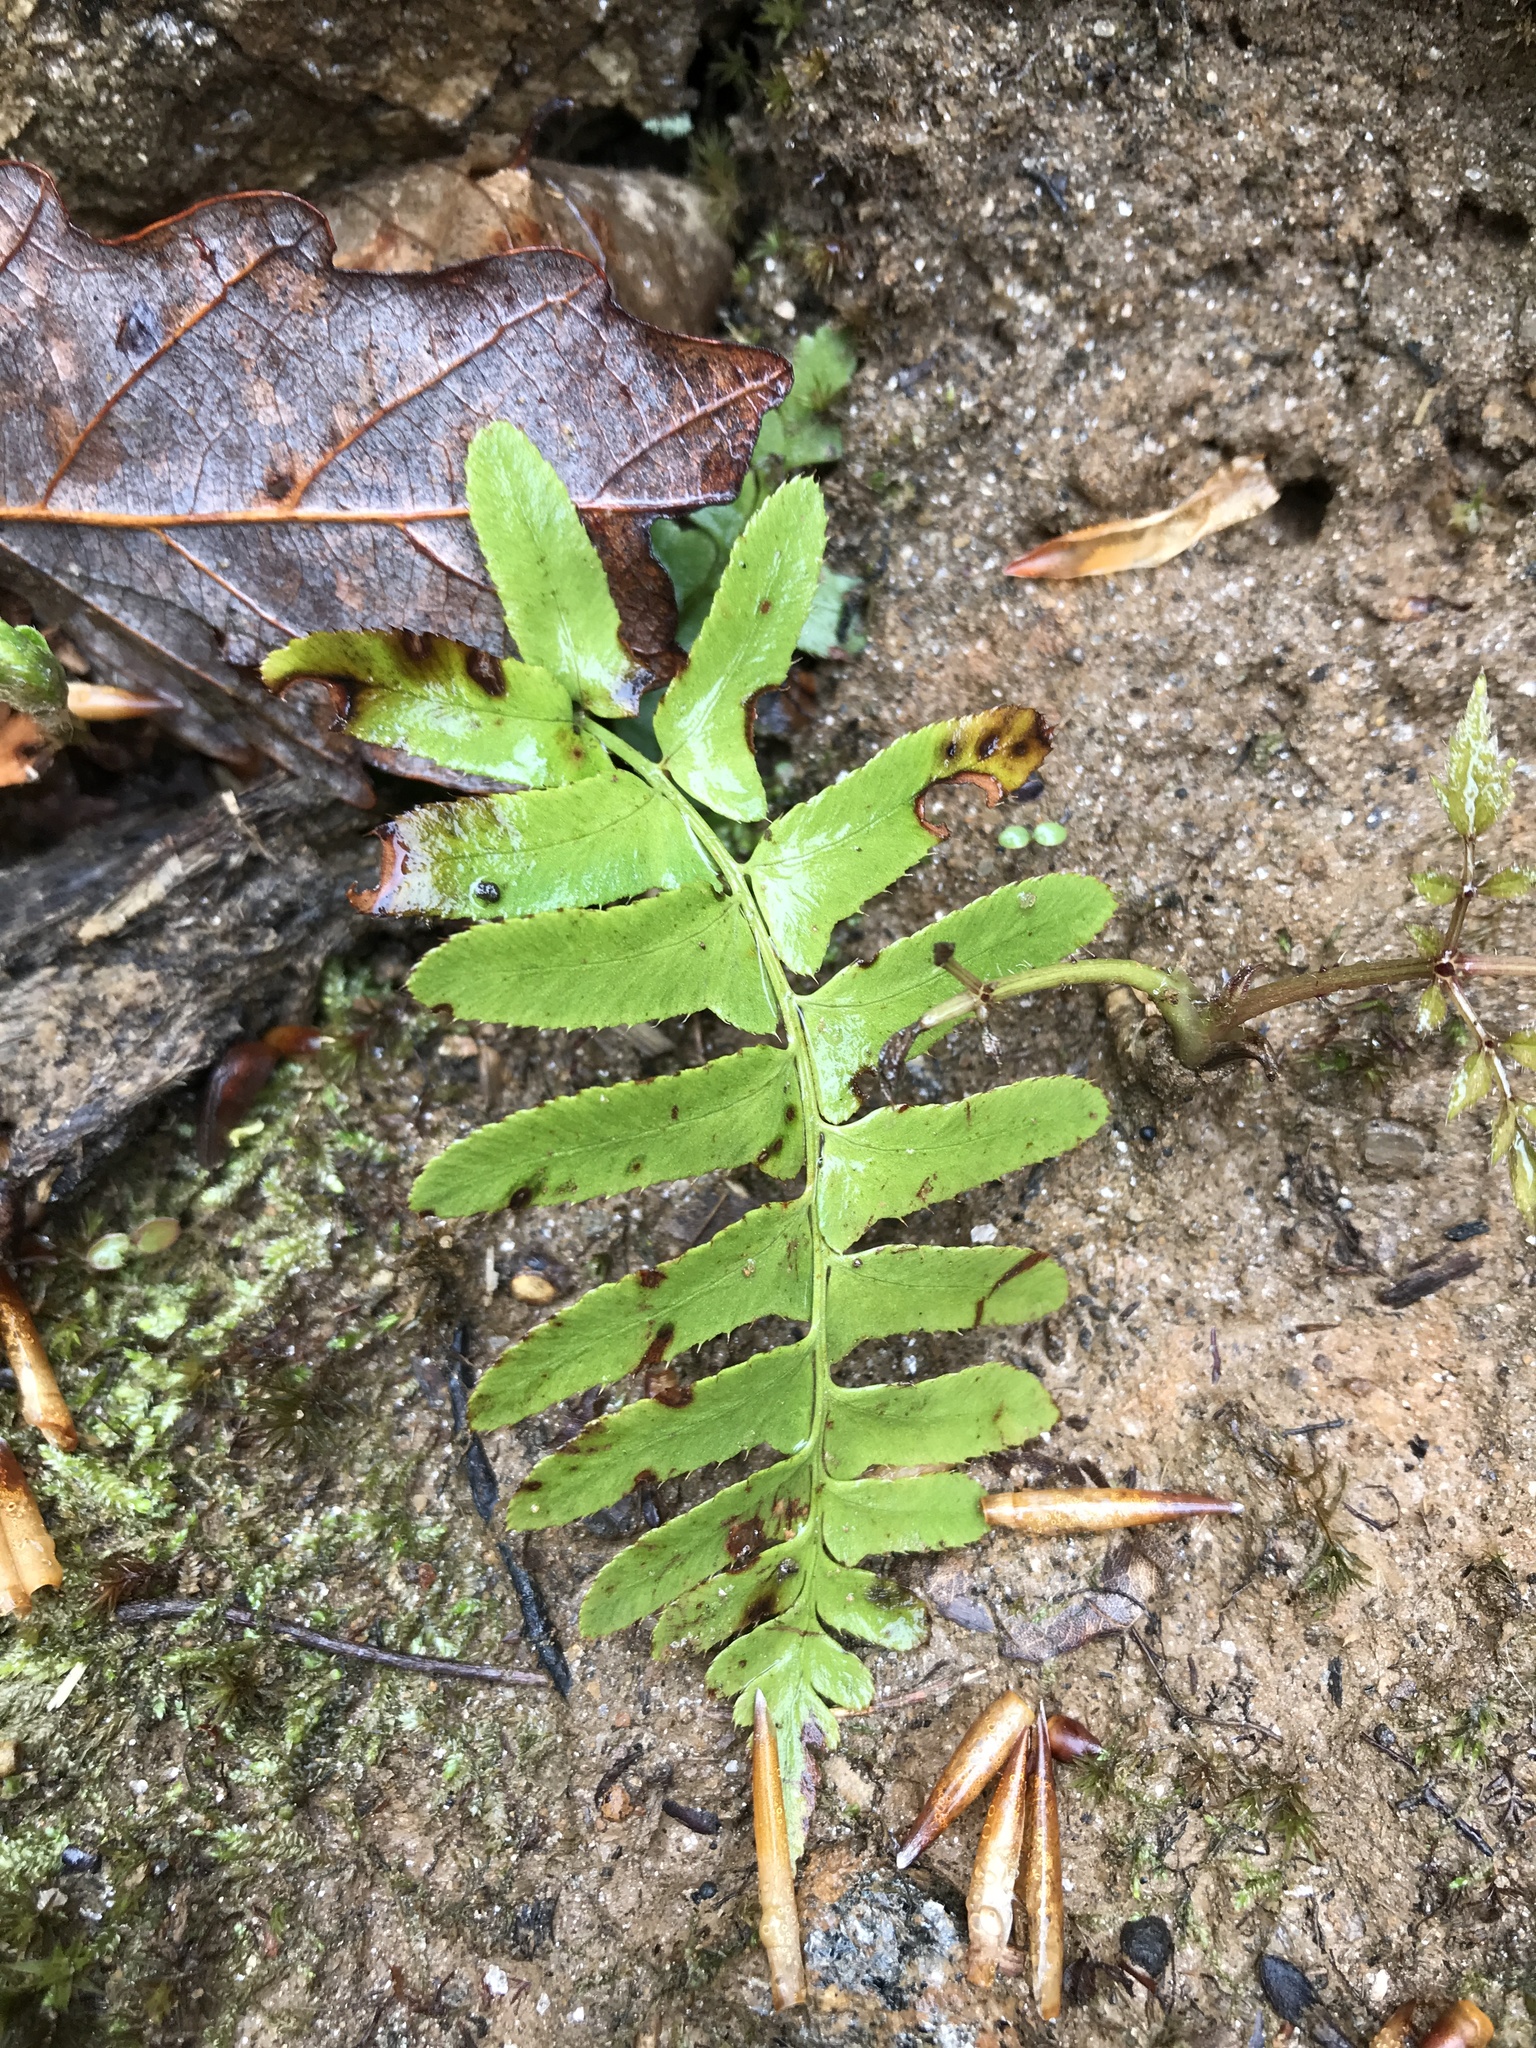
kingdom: Plantae
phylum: Tracheophyta
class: Polypodiopsida
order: Polypodiales
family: Dryopteridaceae
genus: Polystichum
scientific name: Polystichum acrostichoides
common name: Christmas fern
